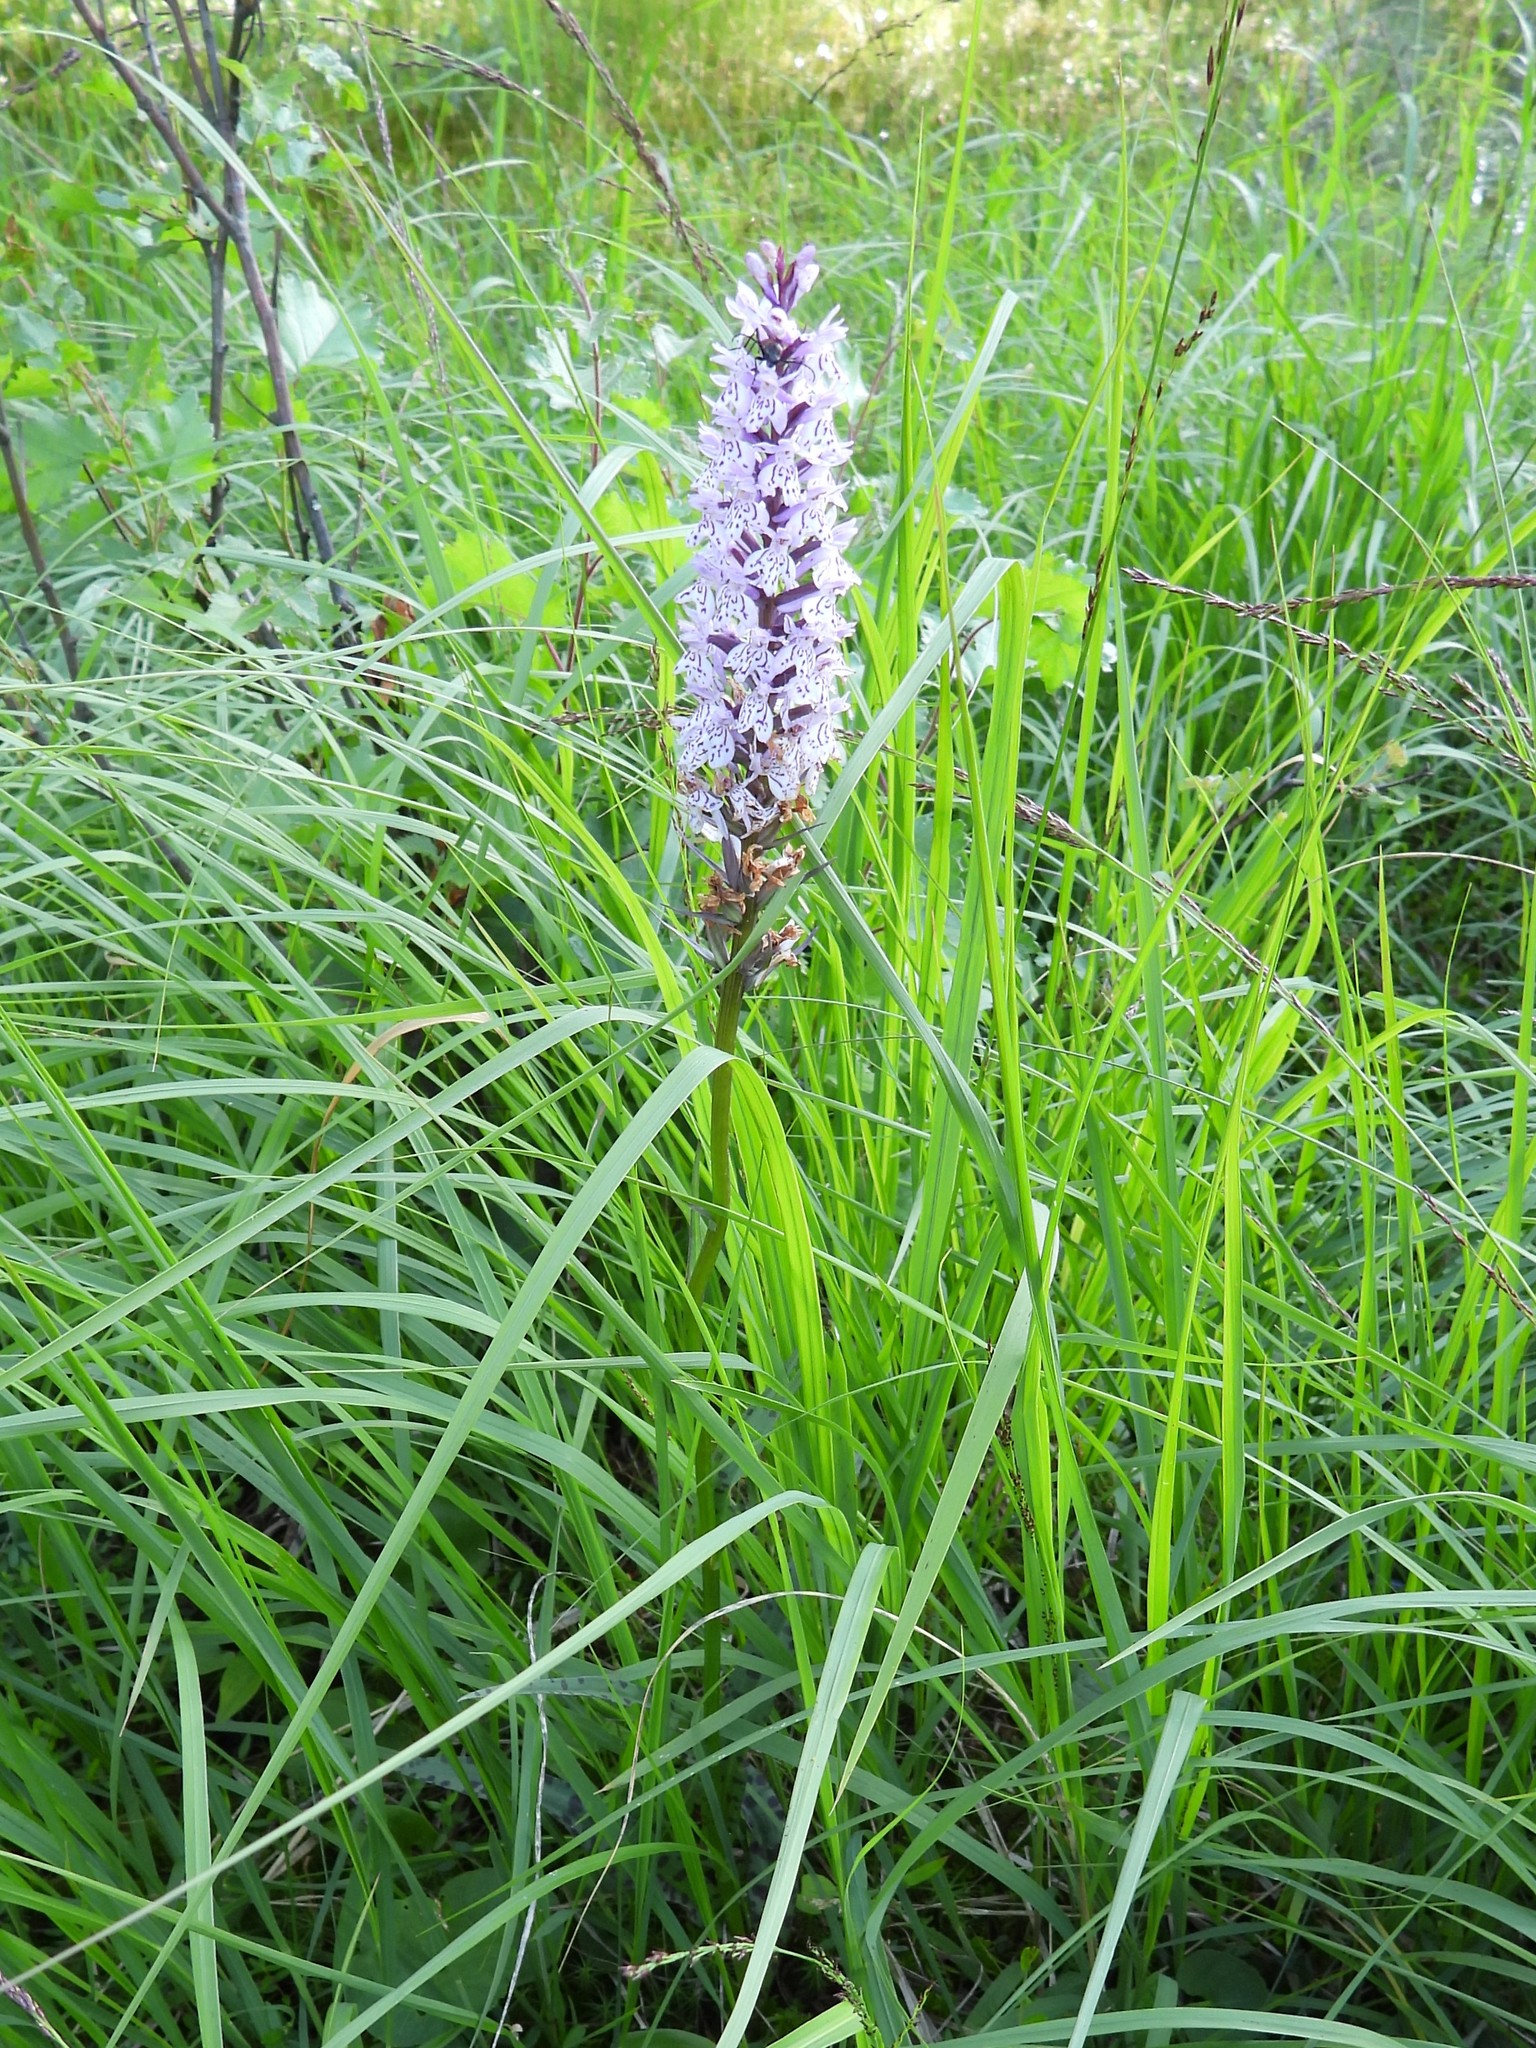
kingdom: Plantae
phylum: Tracheophyta
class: Liliopsida
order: Asparagales
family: Orchidaceae
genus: Dactylorhiza
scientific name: Dactylorhiza maculata
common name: Heath spotted-orchid
